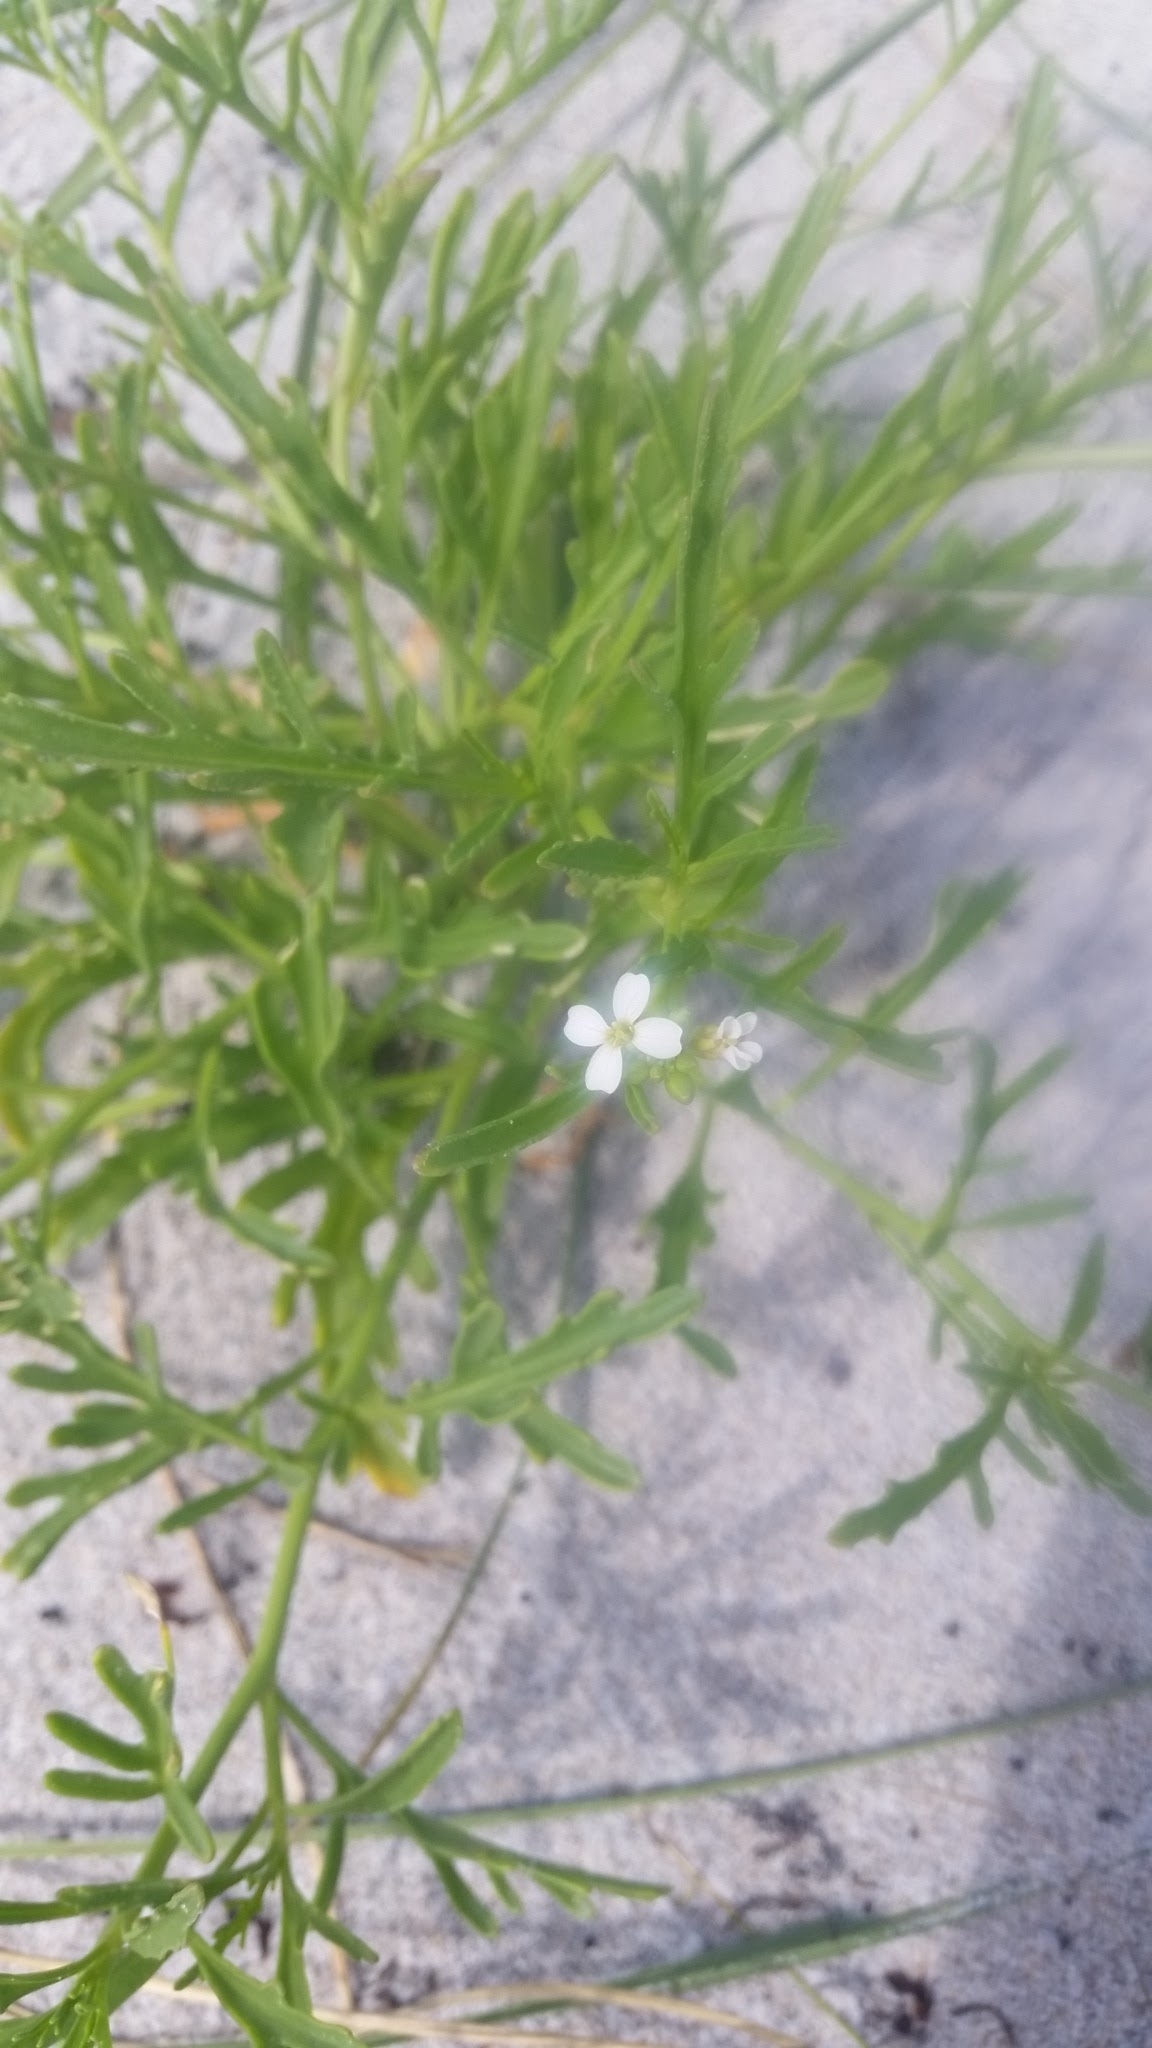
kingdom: Plantae
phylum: Tracheophyta
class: Magnoliopsida
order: Brassicales
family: Brassicaceae
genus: Cakile
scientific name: Cakile lanceolata
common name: Sea rocket
